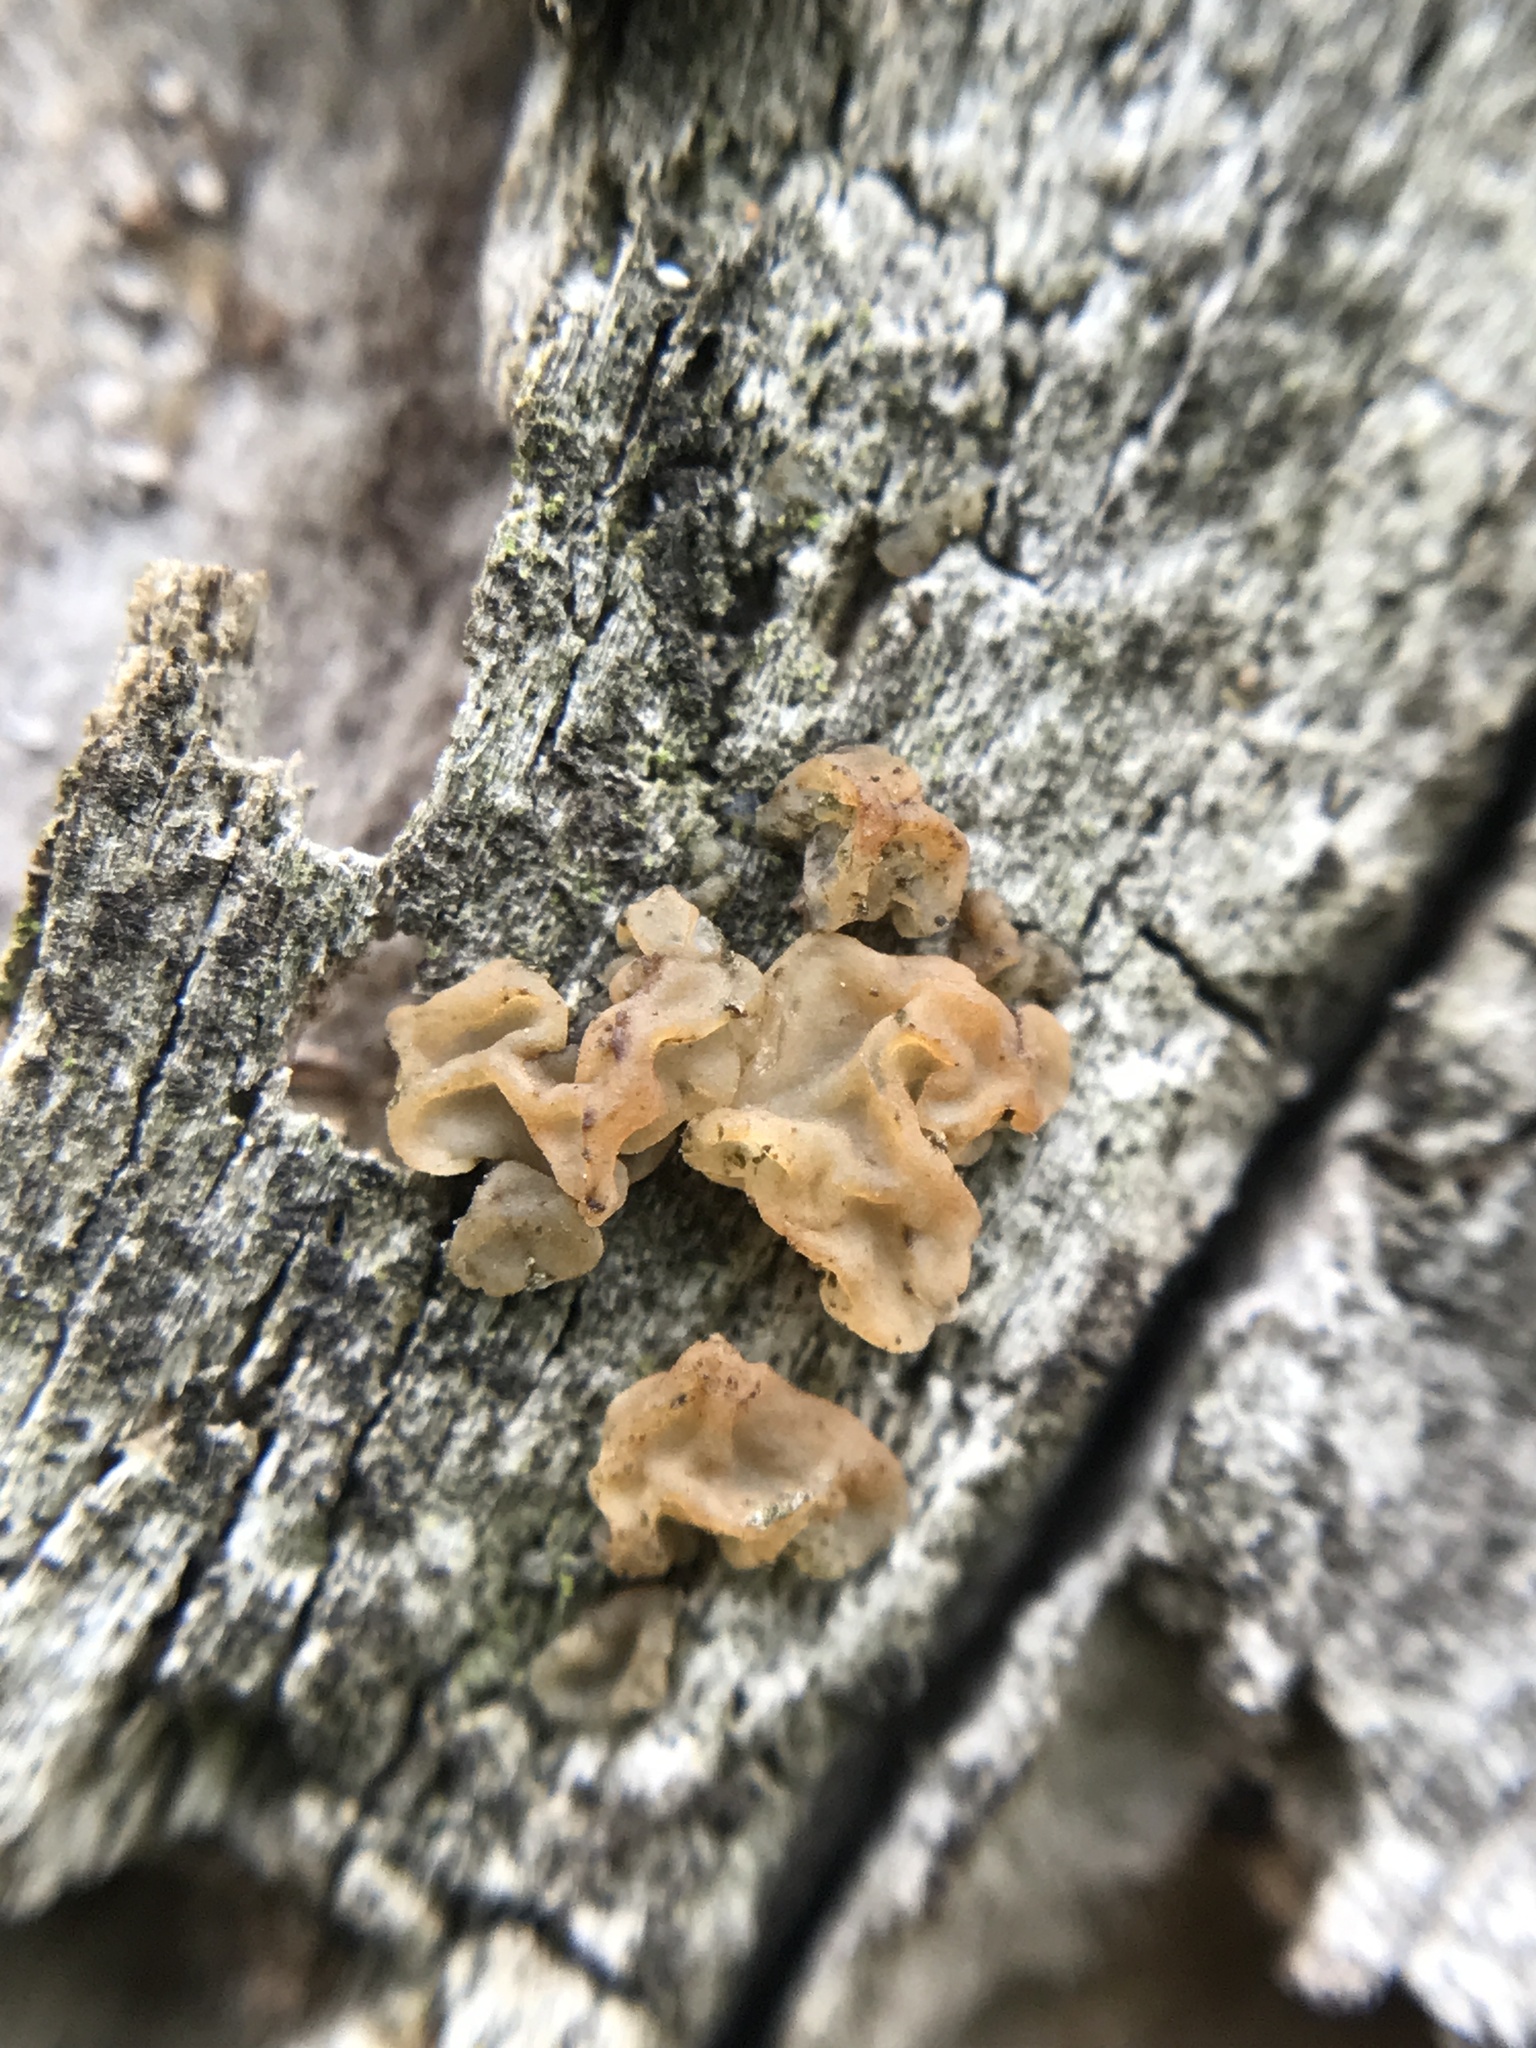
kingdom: Fungi
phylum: Basidiomycota
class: Tremellomycetes
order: Tremellales
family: Tremellaceae
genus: Tremella
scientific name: Tremella mesenterica
